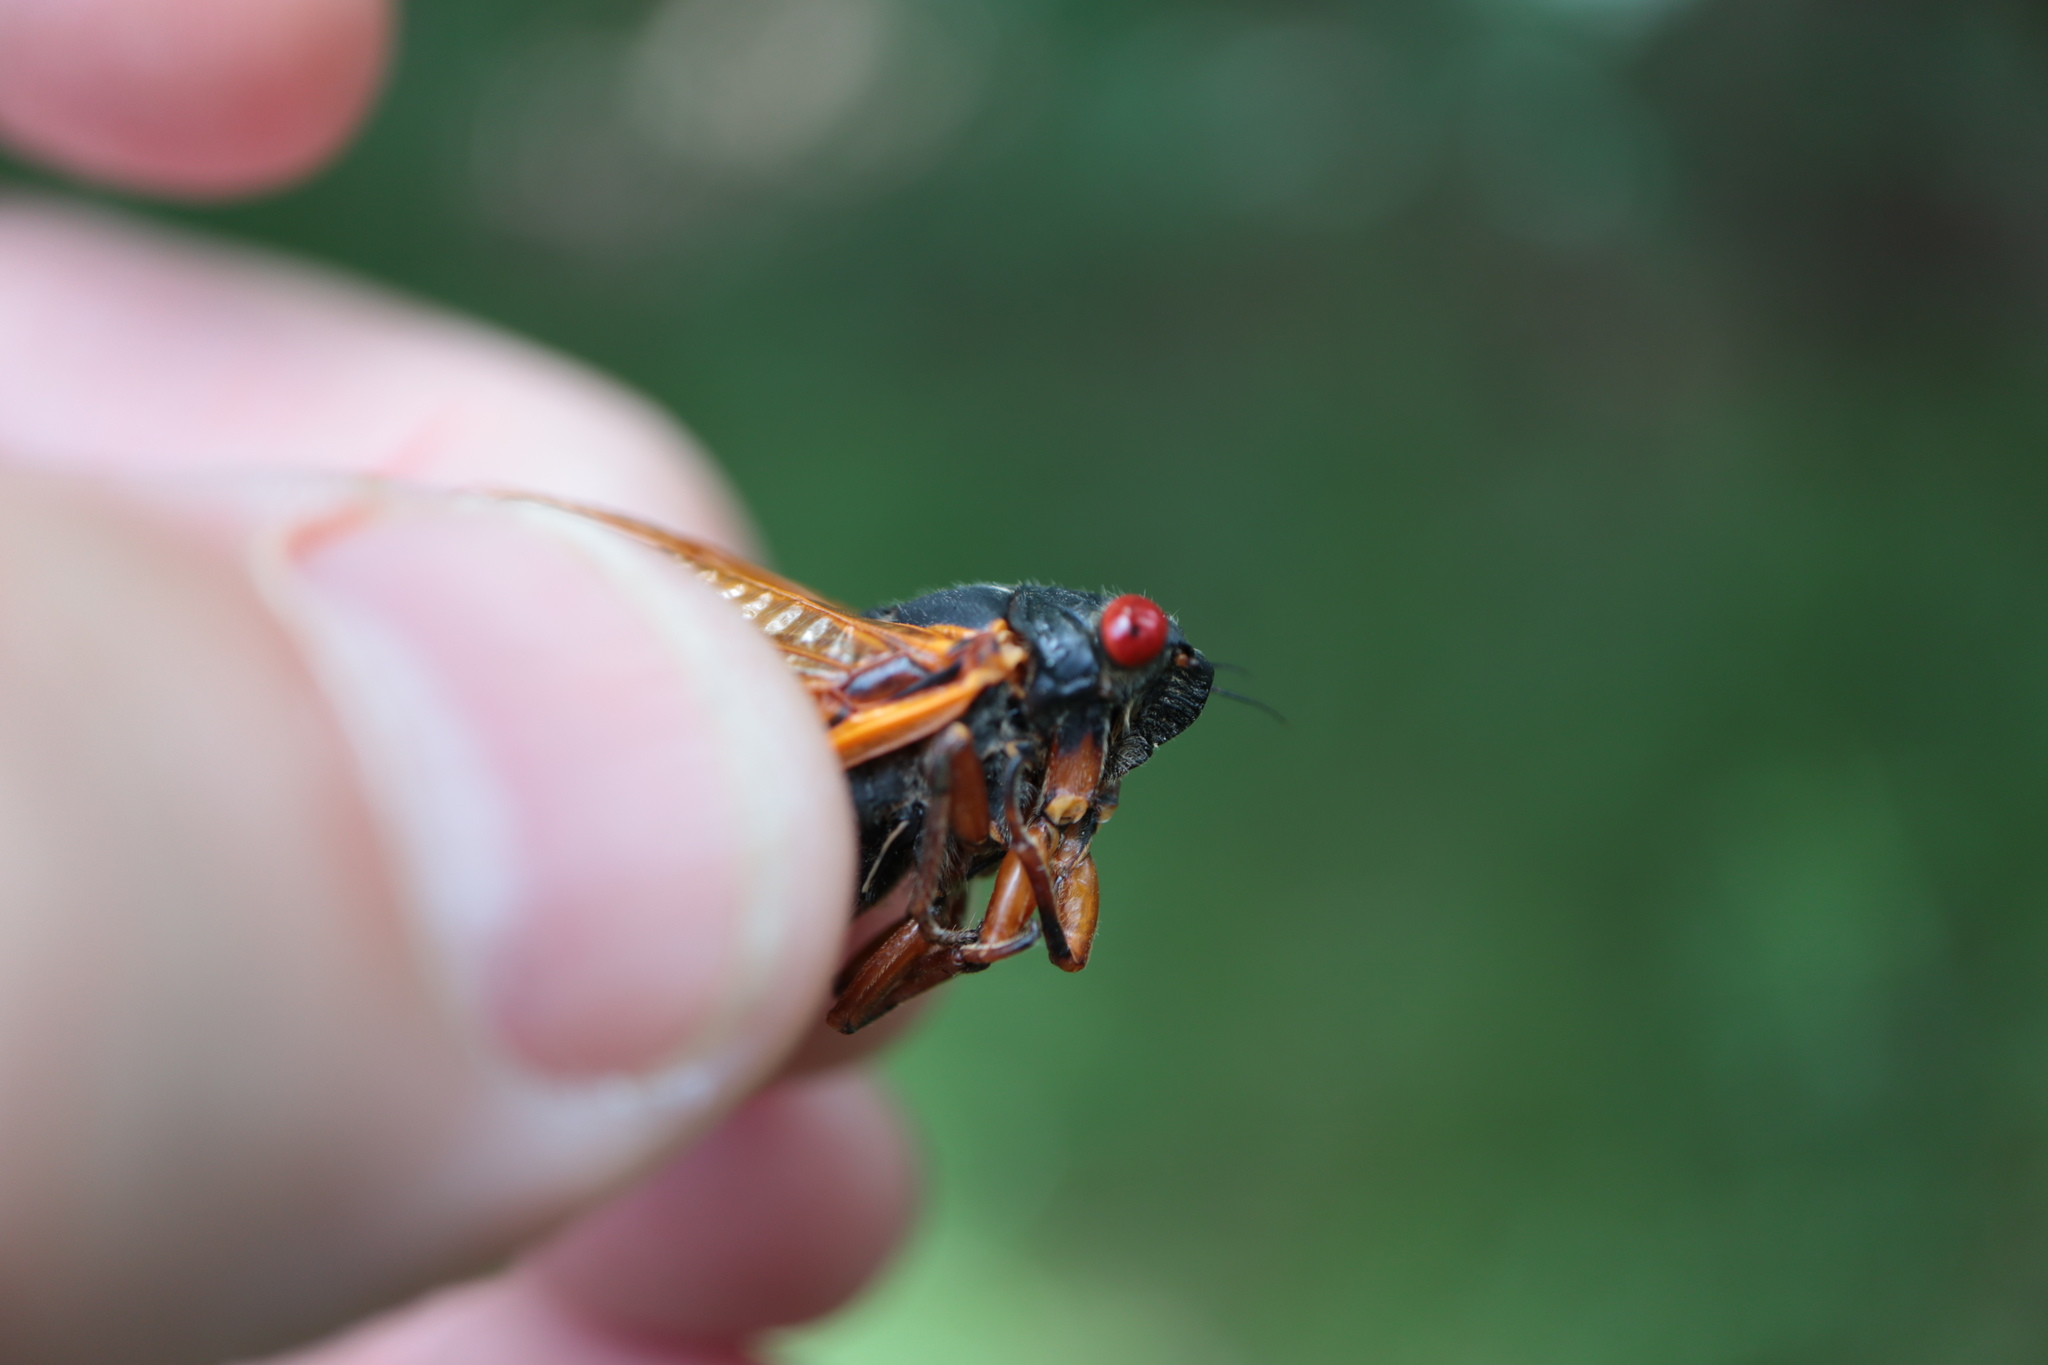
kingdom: Animalia
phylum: Arthropoda
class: Insecta
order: Hemiptera
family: Cicadidae
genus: Magicicada
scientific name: Magicicada cassini
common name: Cassin's 17-year cicada
